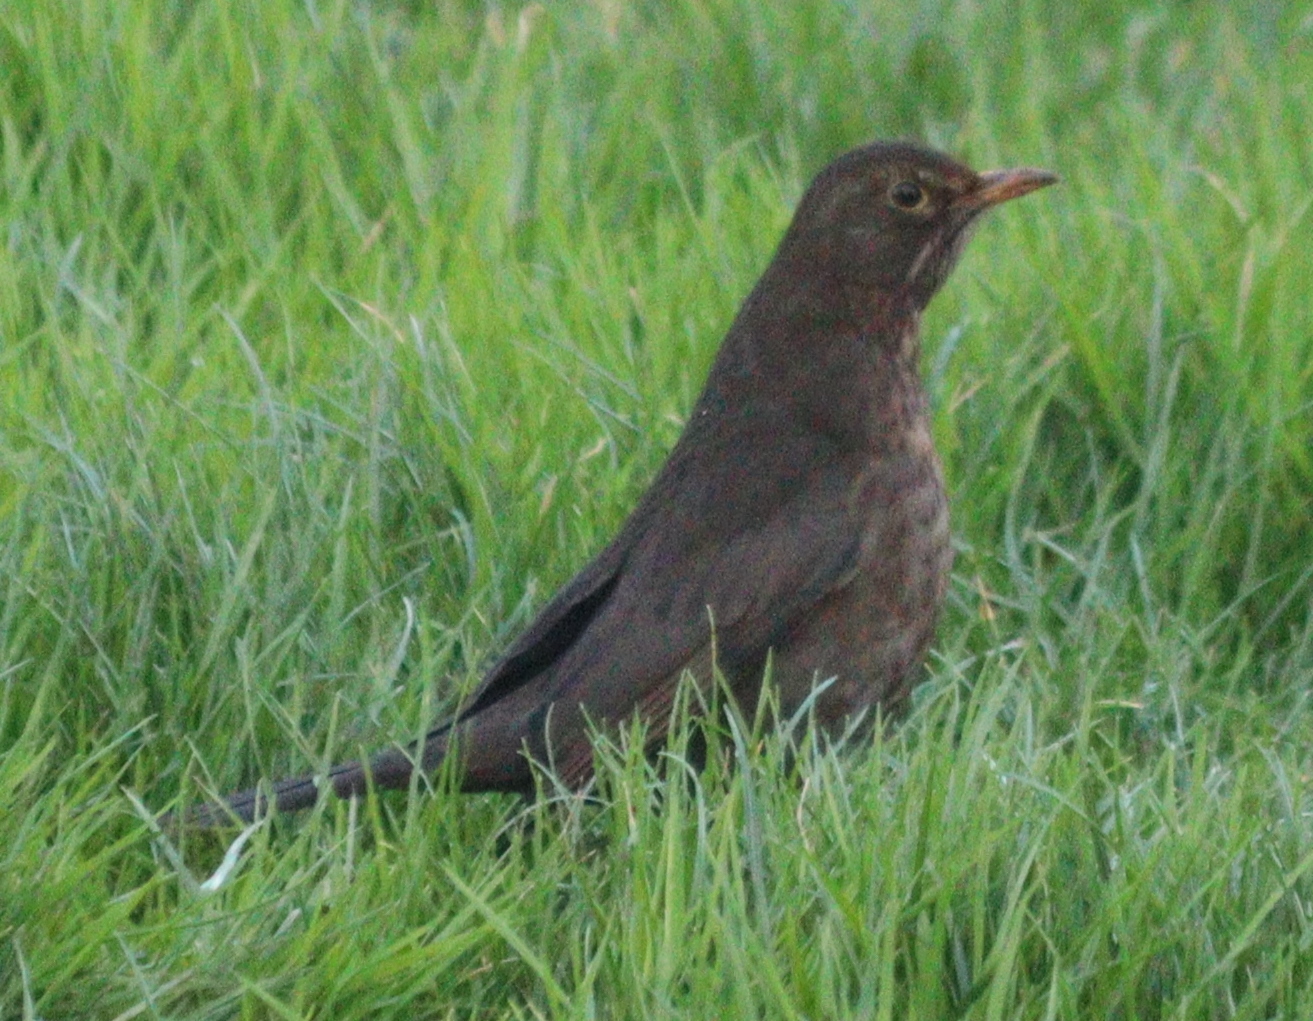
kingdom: Animalia
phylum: Chordata
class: Aves
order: Passeriformes
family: Turdidae
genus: Turdus
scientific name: Turdus merula
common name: Common blackbird
